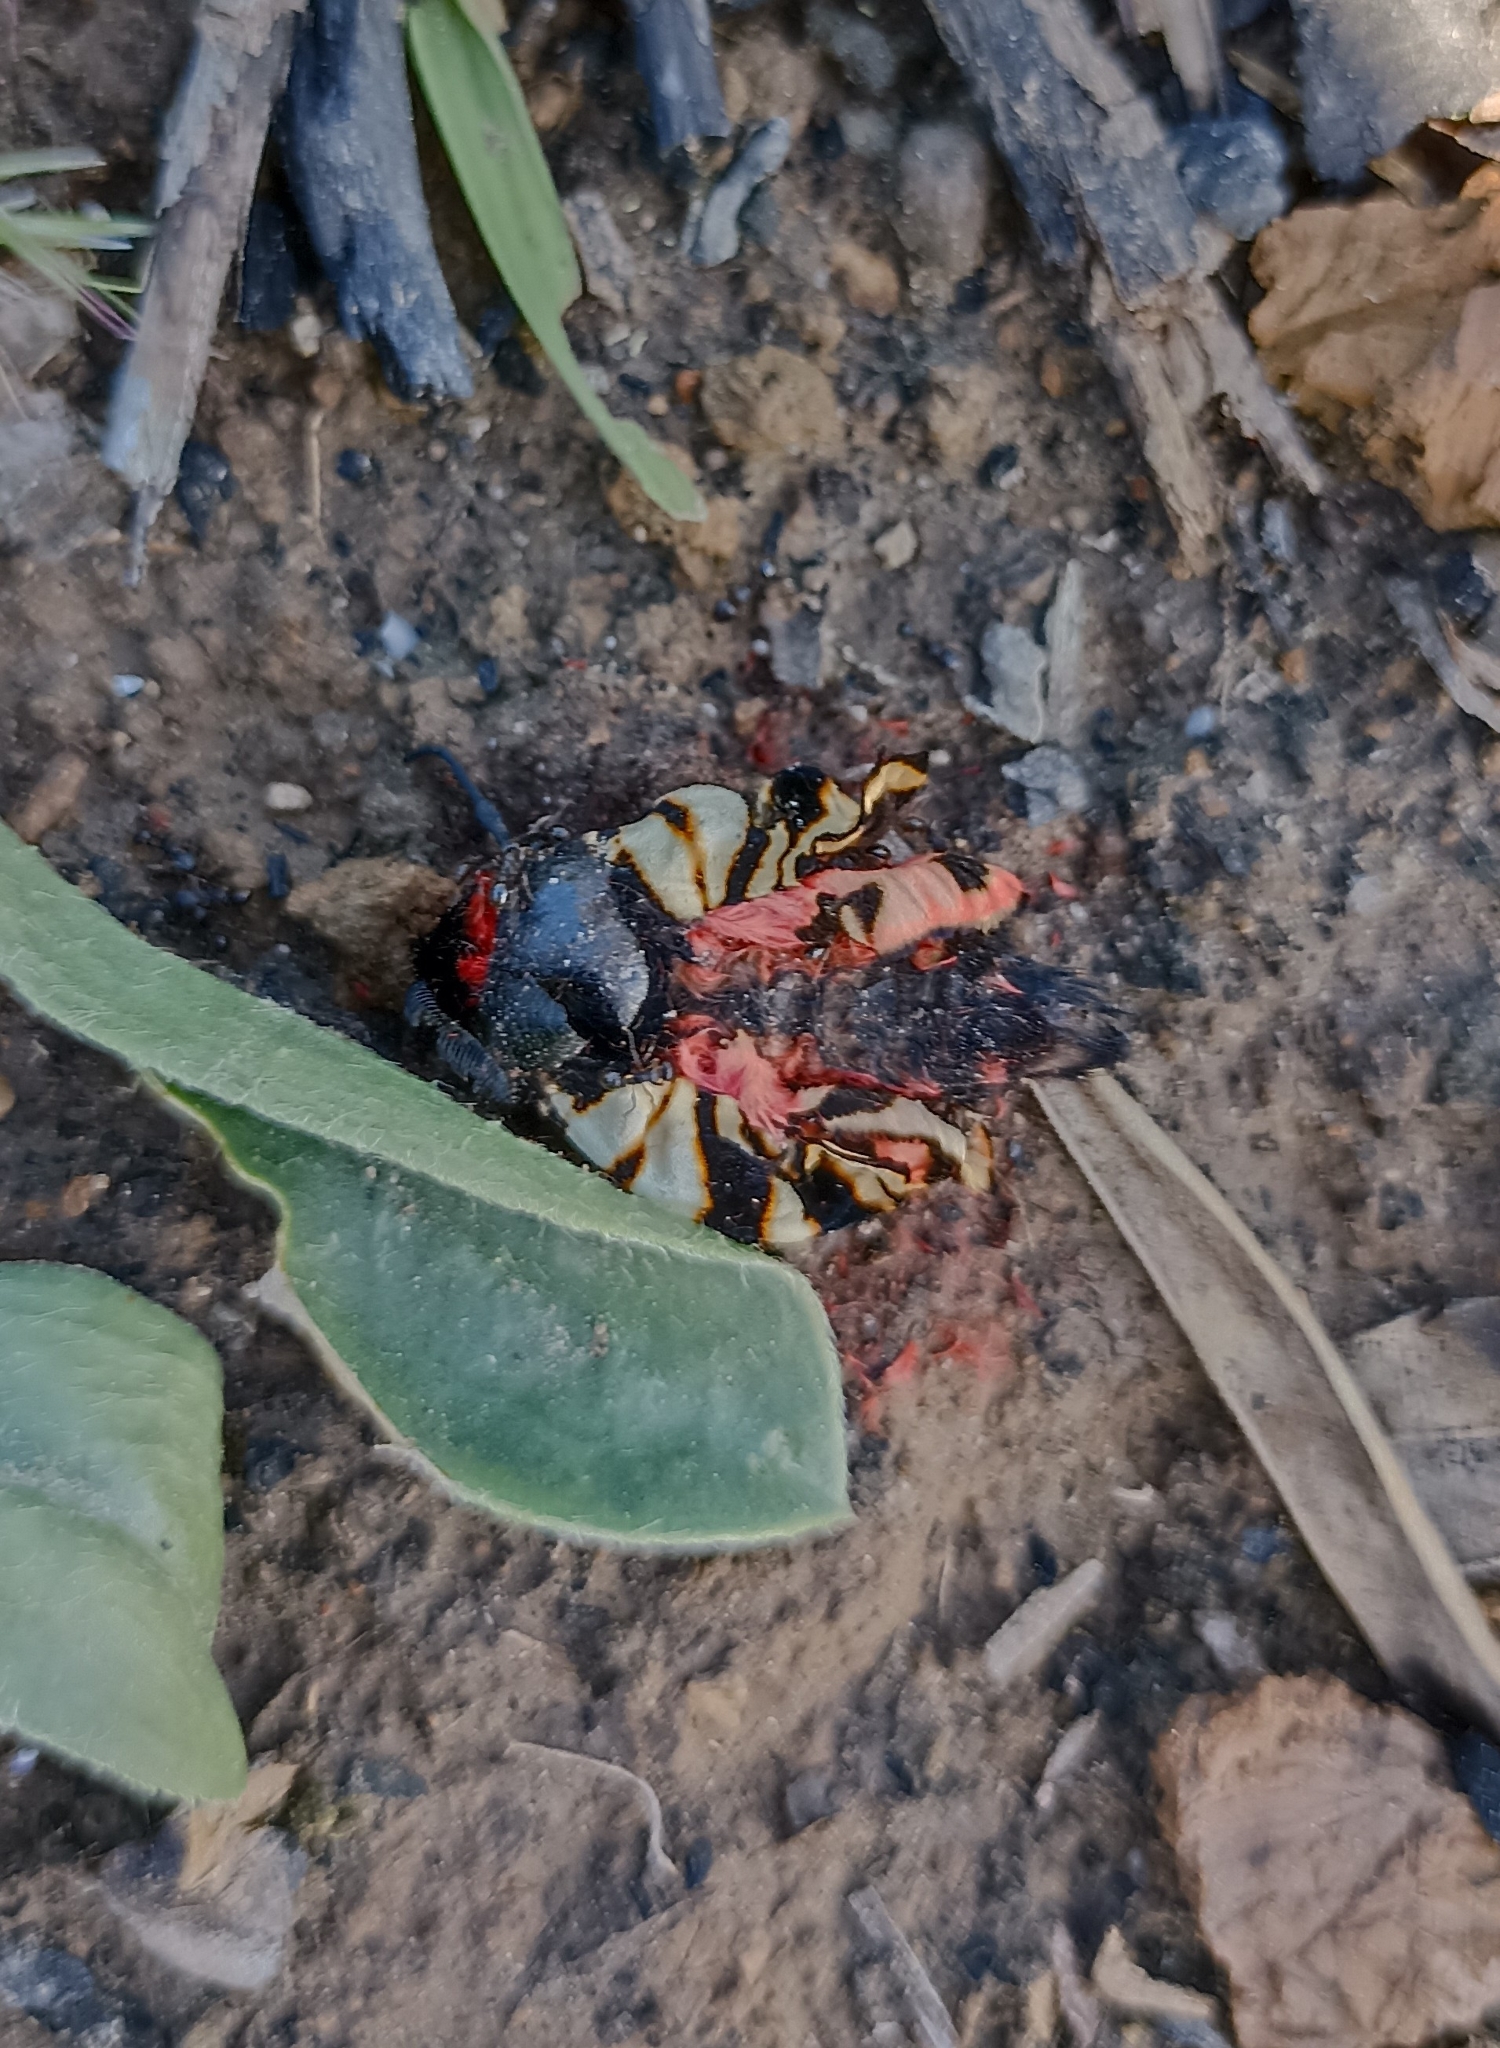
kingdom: Animalia
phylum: Arthropoda
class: Insecta
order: Lepidoptera
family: Erebidae
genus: Eucharia
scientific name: Eucharia festiva
